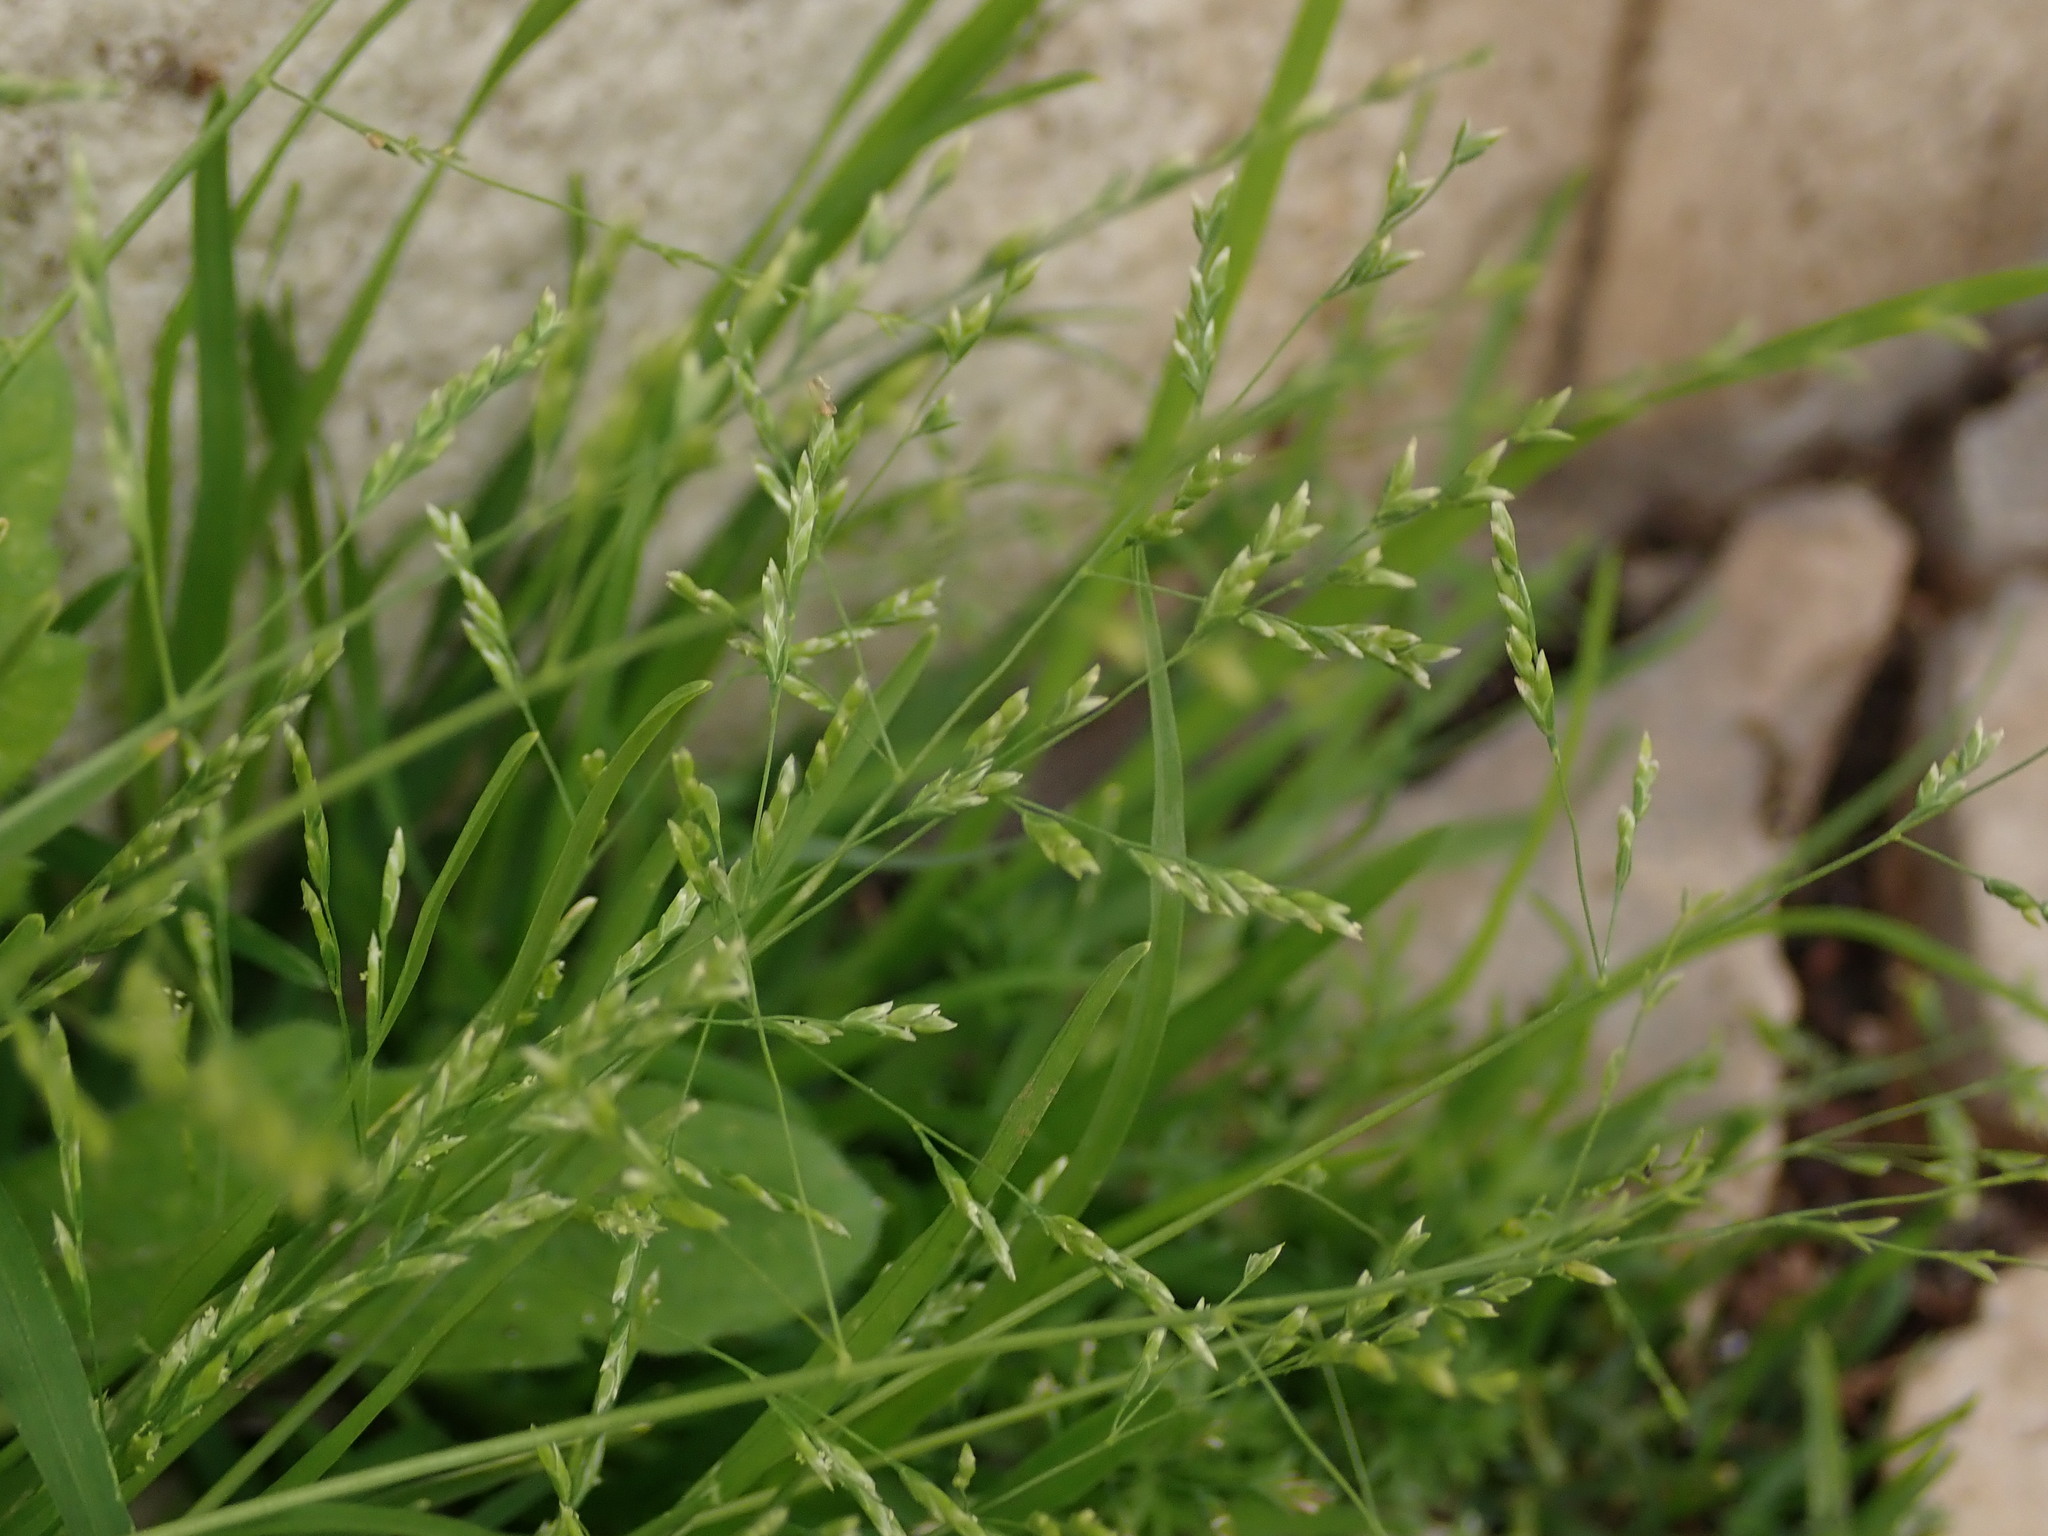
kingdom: Plantae
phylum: Tracheophyta
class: Liliopsida
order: Poales
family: Poaceae
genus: Poa
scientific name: Poa infirma
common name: Weak bluegrass
